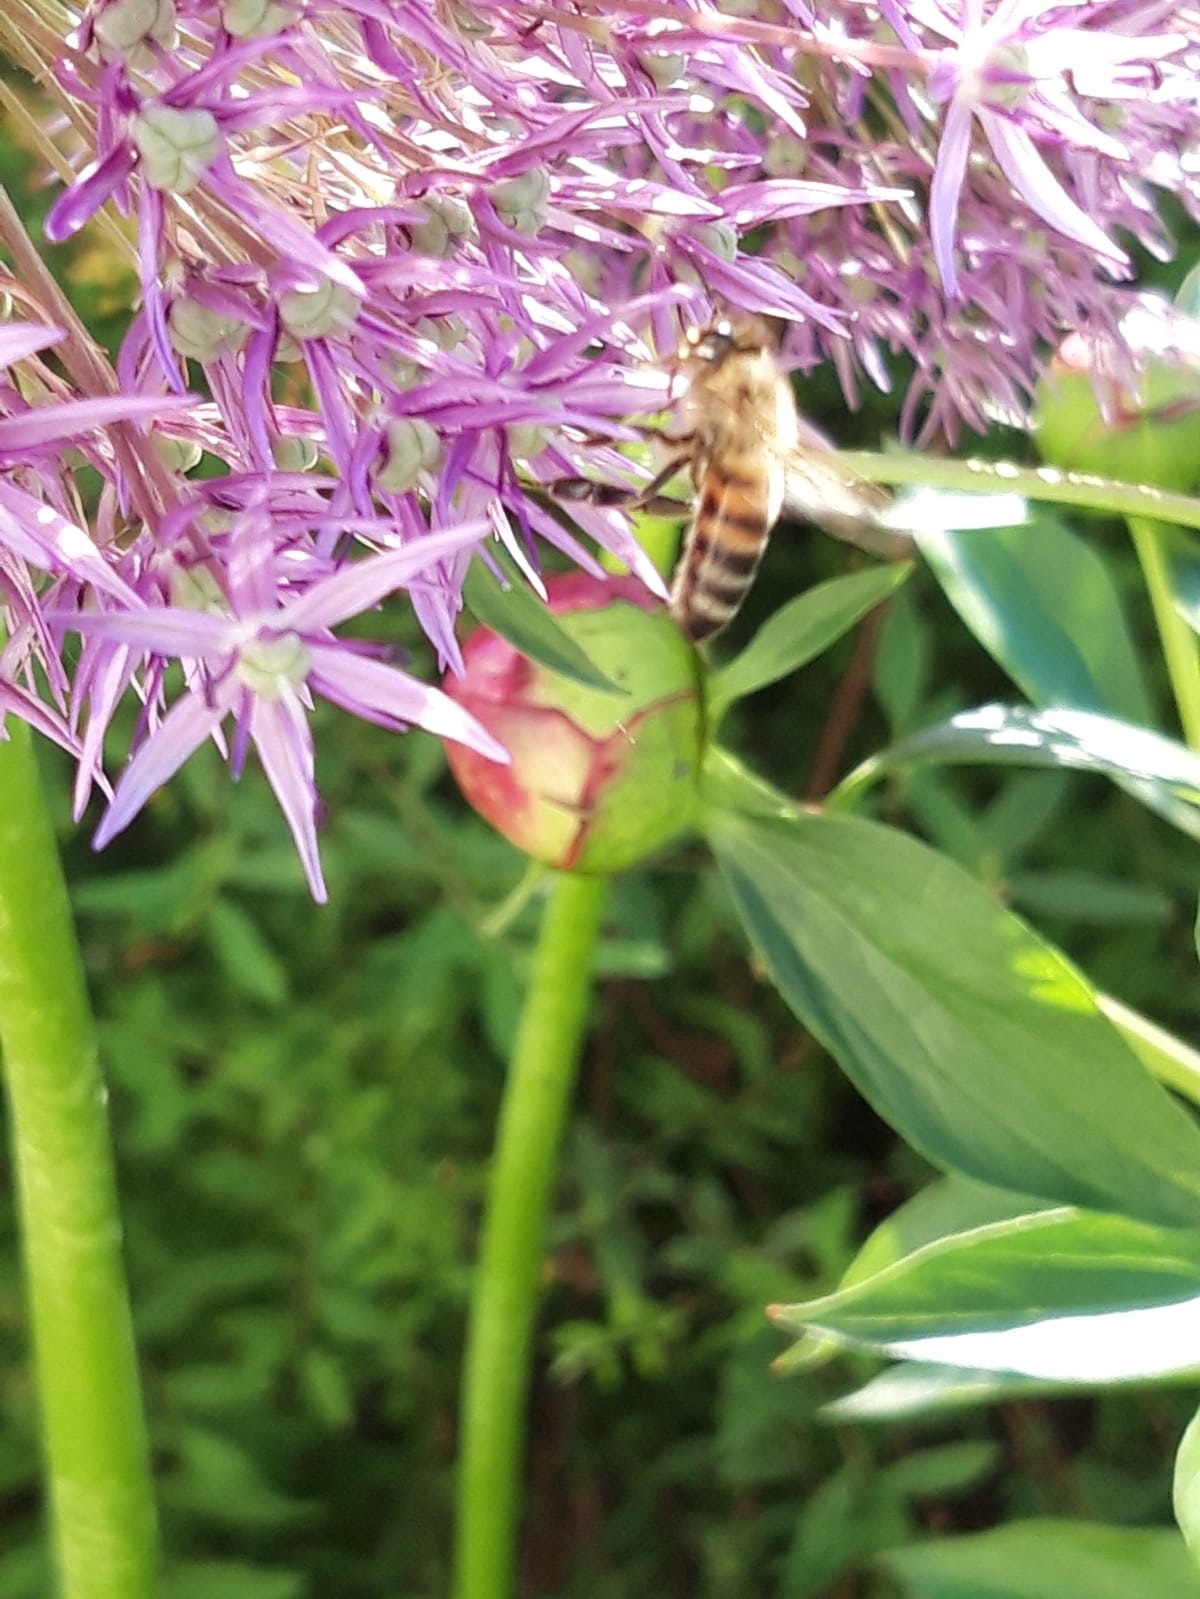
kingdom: Animalia
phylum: Arthropoda
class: Insecta
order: Hymenoptera
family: Apidae
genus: Apis
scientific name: Apis mellifera
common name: Honey bee
